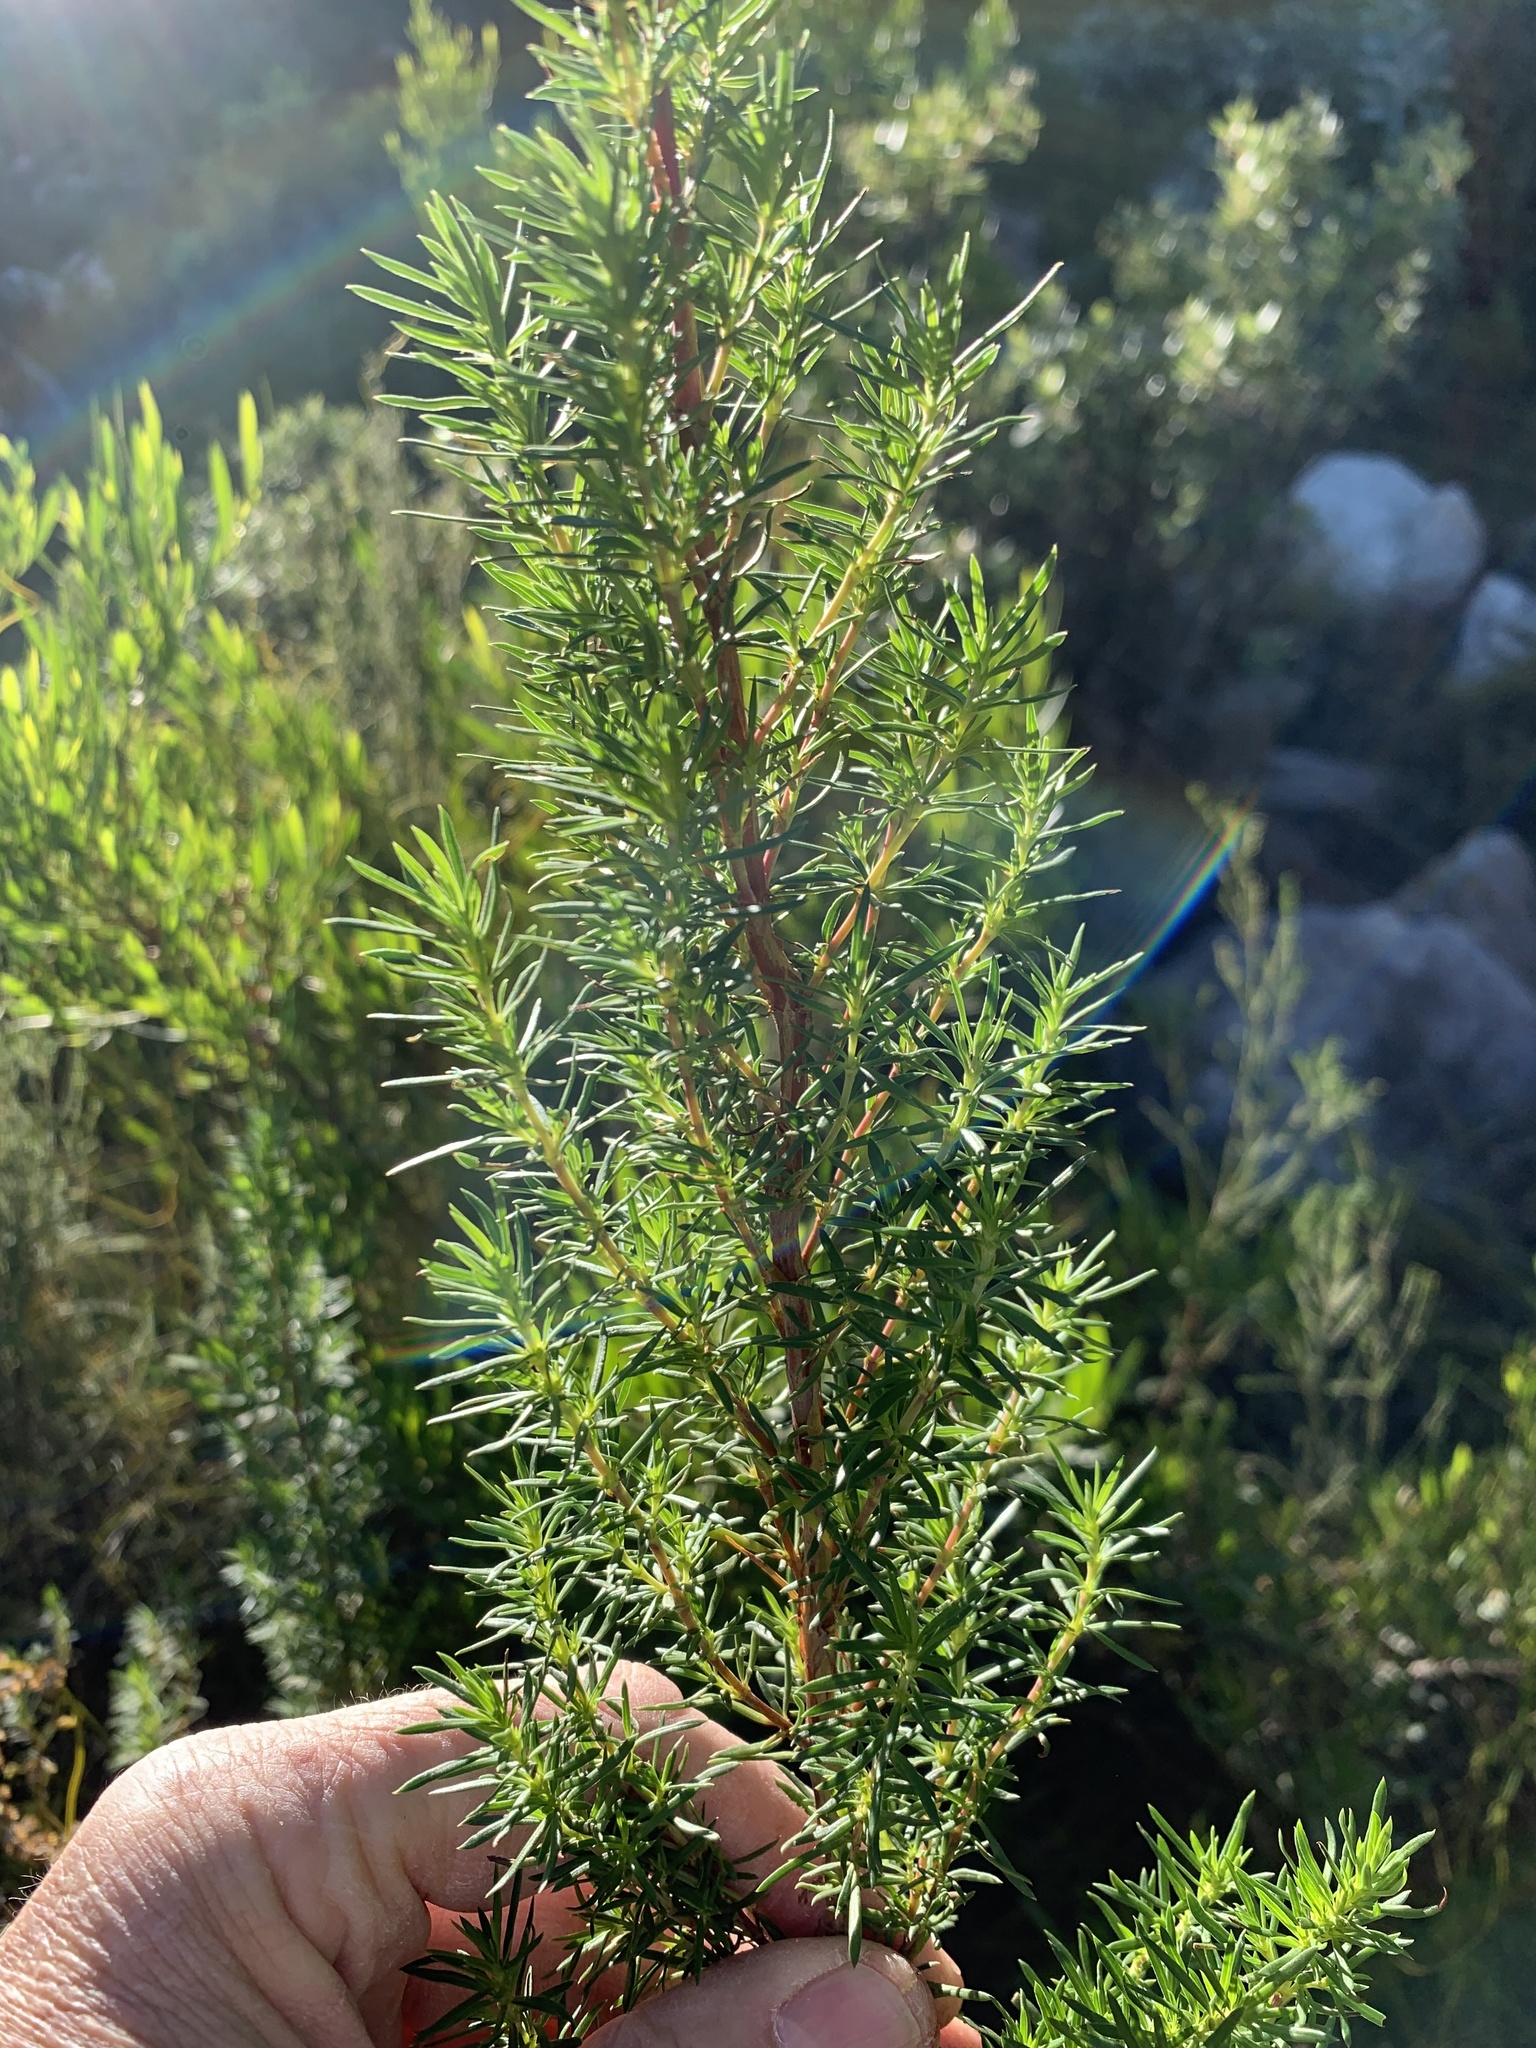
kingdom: Plantae
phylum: Tracheophyta
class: Magnoliopsida
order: Gentianales
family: Rubiaceae
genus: Anthospermum
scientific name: Anthospermum aethiopicum
